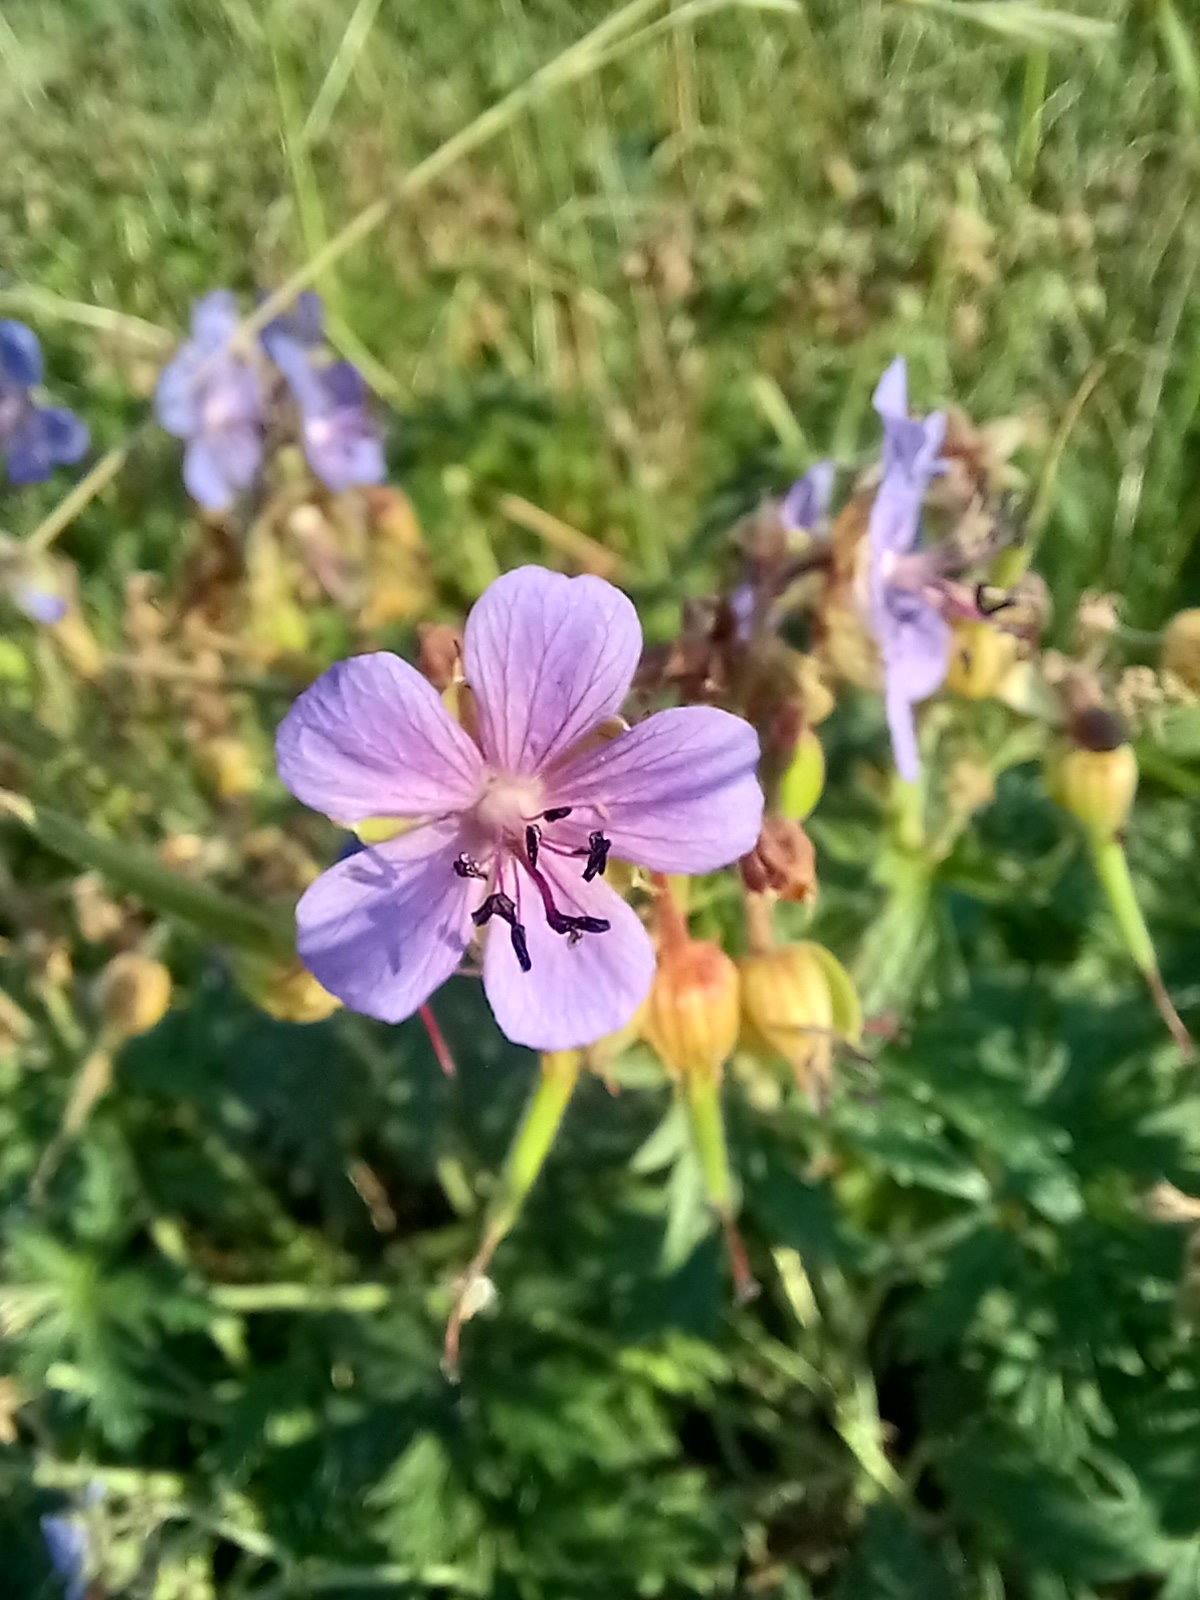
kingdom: Plantae
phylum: Tracheophyta
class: Magnoliopsida
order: Geraniales
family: Geraniaceae
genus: Geranium
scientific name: Geranium pratense
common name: Meadow crane's-bill
